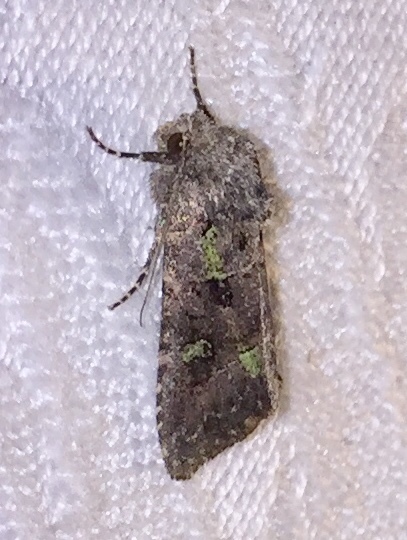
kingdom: Animalia
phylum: Arthropoda
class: Insecta
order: Lepidoptera
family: Noctuidae
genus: Lacinipolia
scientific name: Lacinipolia renigera
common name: Kidney-spotted minor
